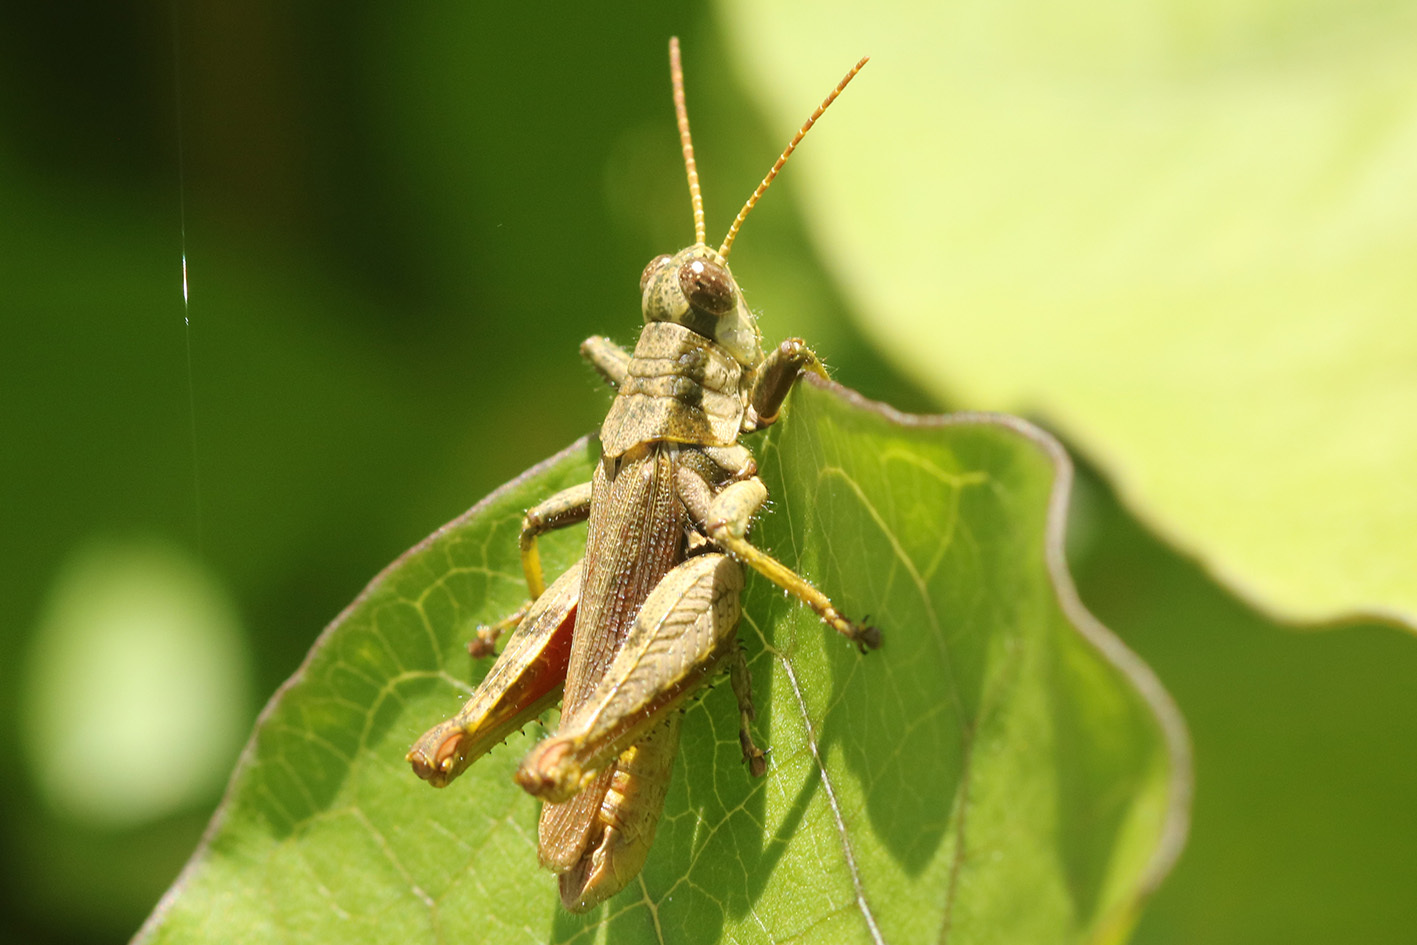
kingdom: Animalia
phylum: Arthropoda
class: Insecta
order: Orthoptera
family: Acrididae
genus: Ronderosia
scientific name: Ronderosia bergii
